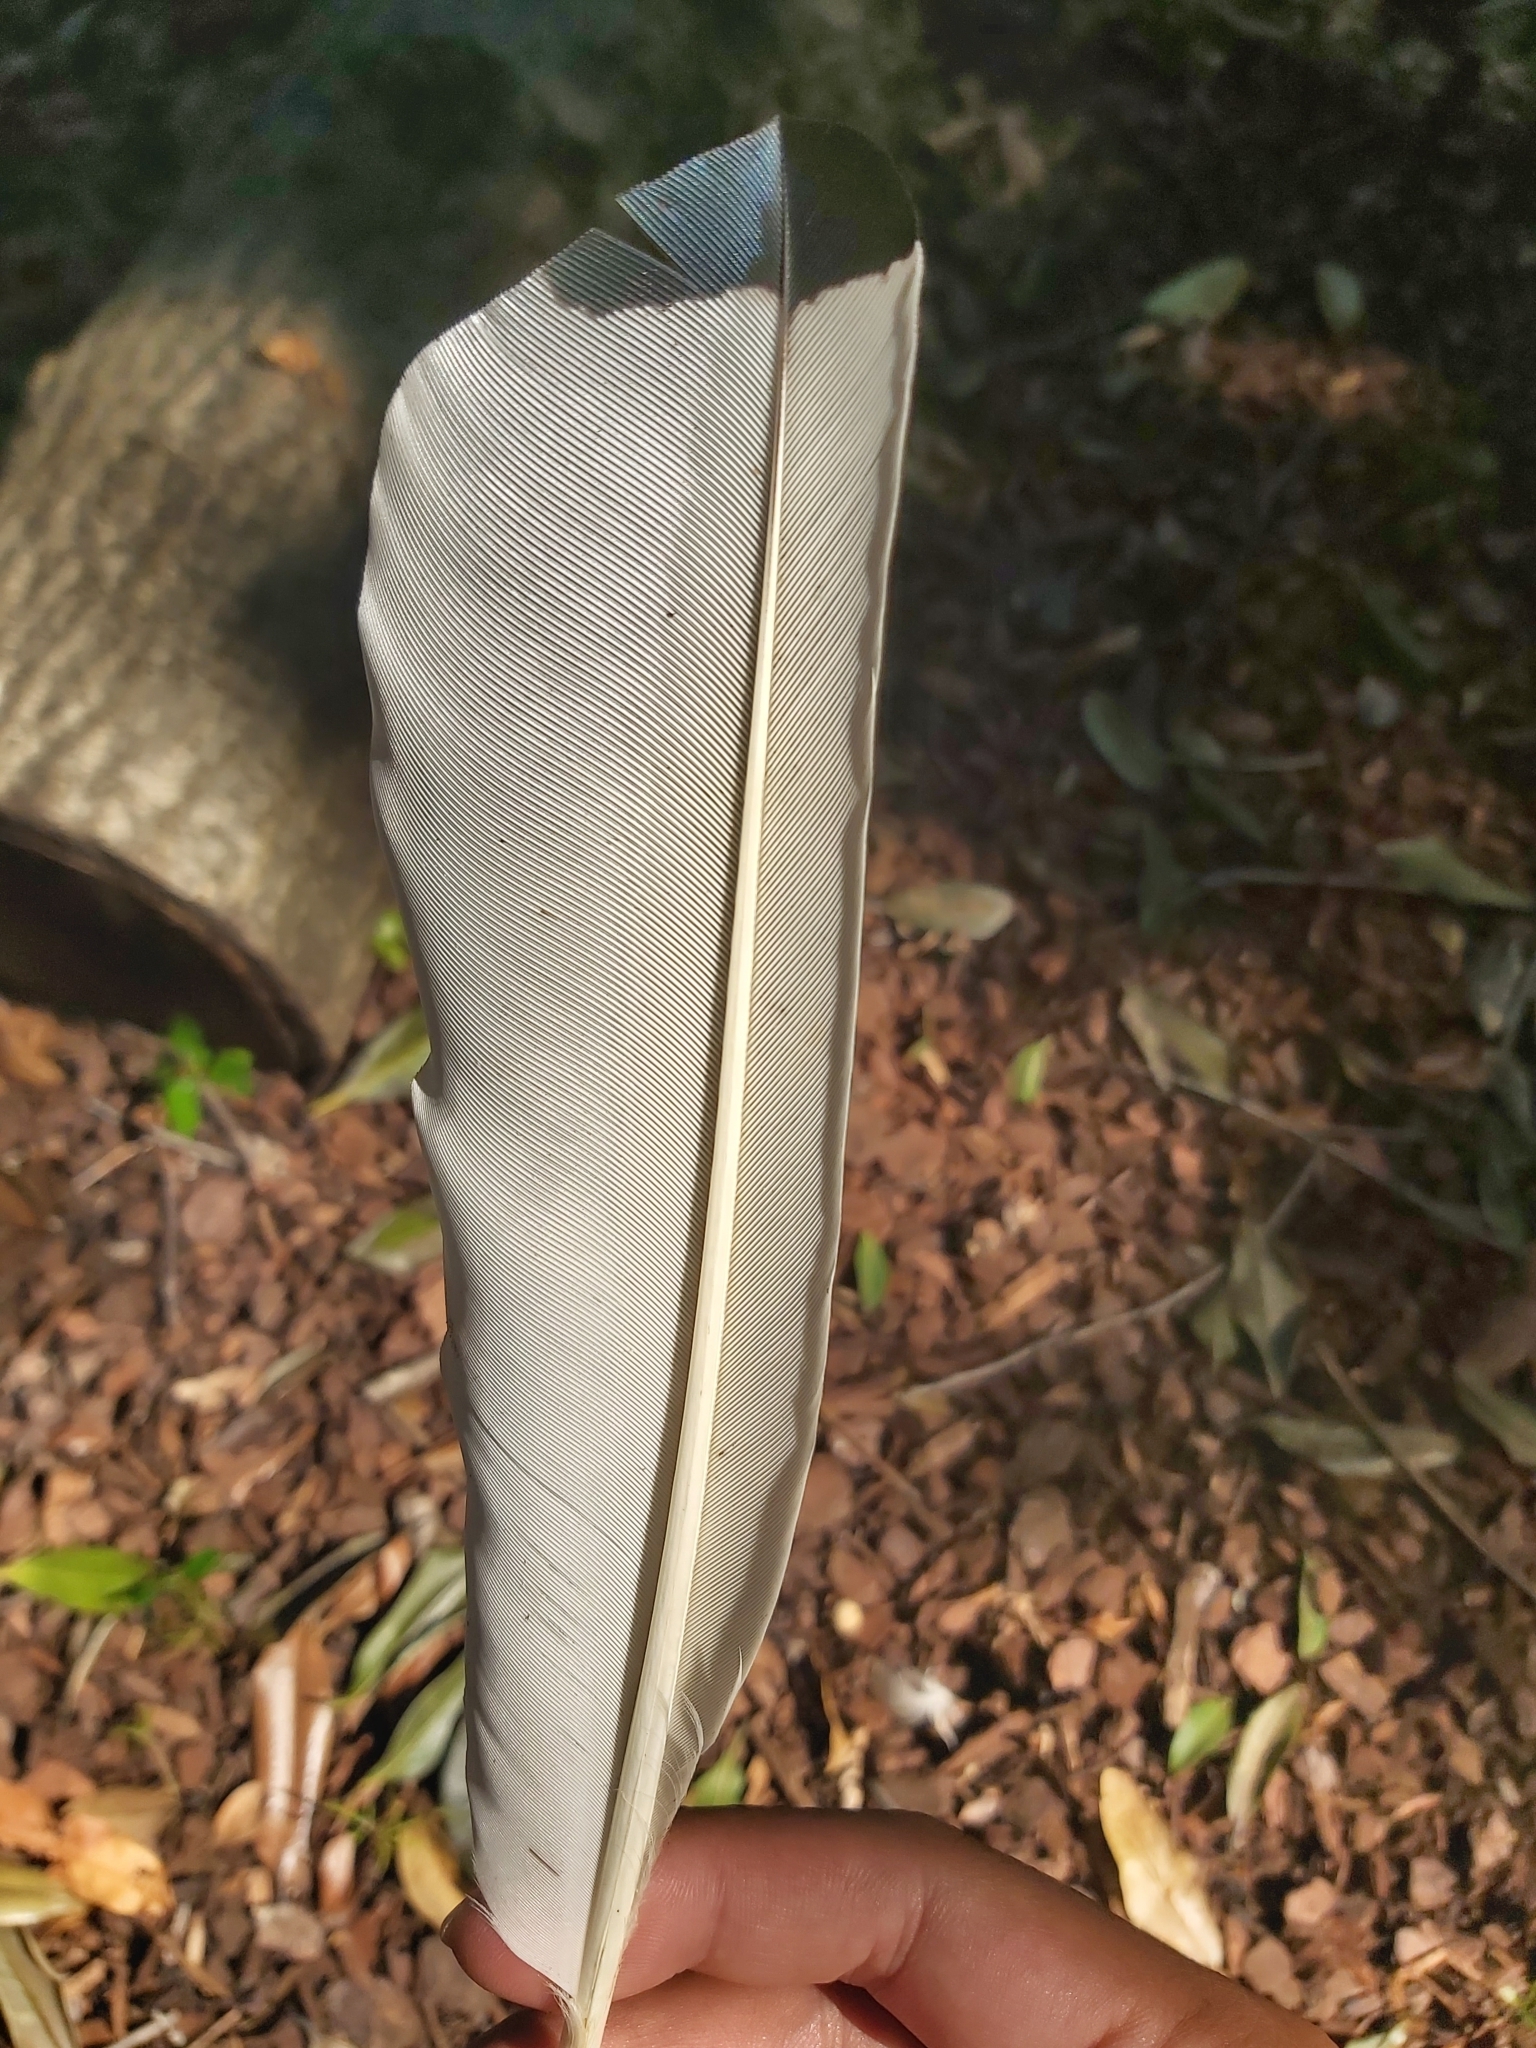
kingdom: Animalia
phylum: Chordata
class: Aves
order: Pelecaniformes
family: Threskiornithidae
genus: Threskiornis
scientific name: Threskiornis molucca
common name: Australian white ibis
